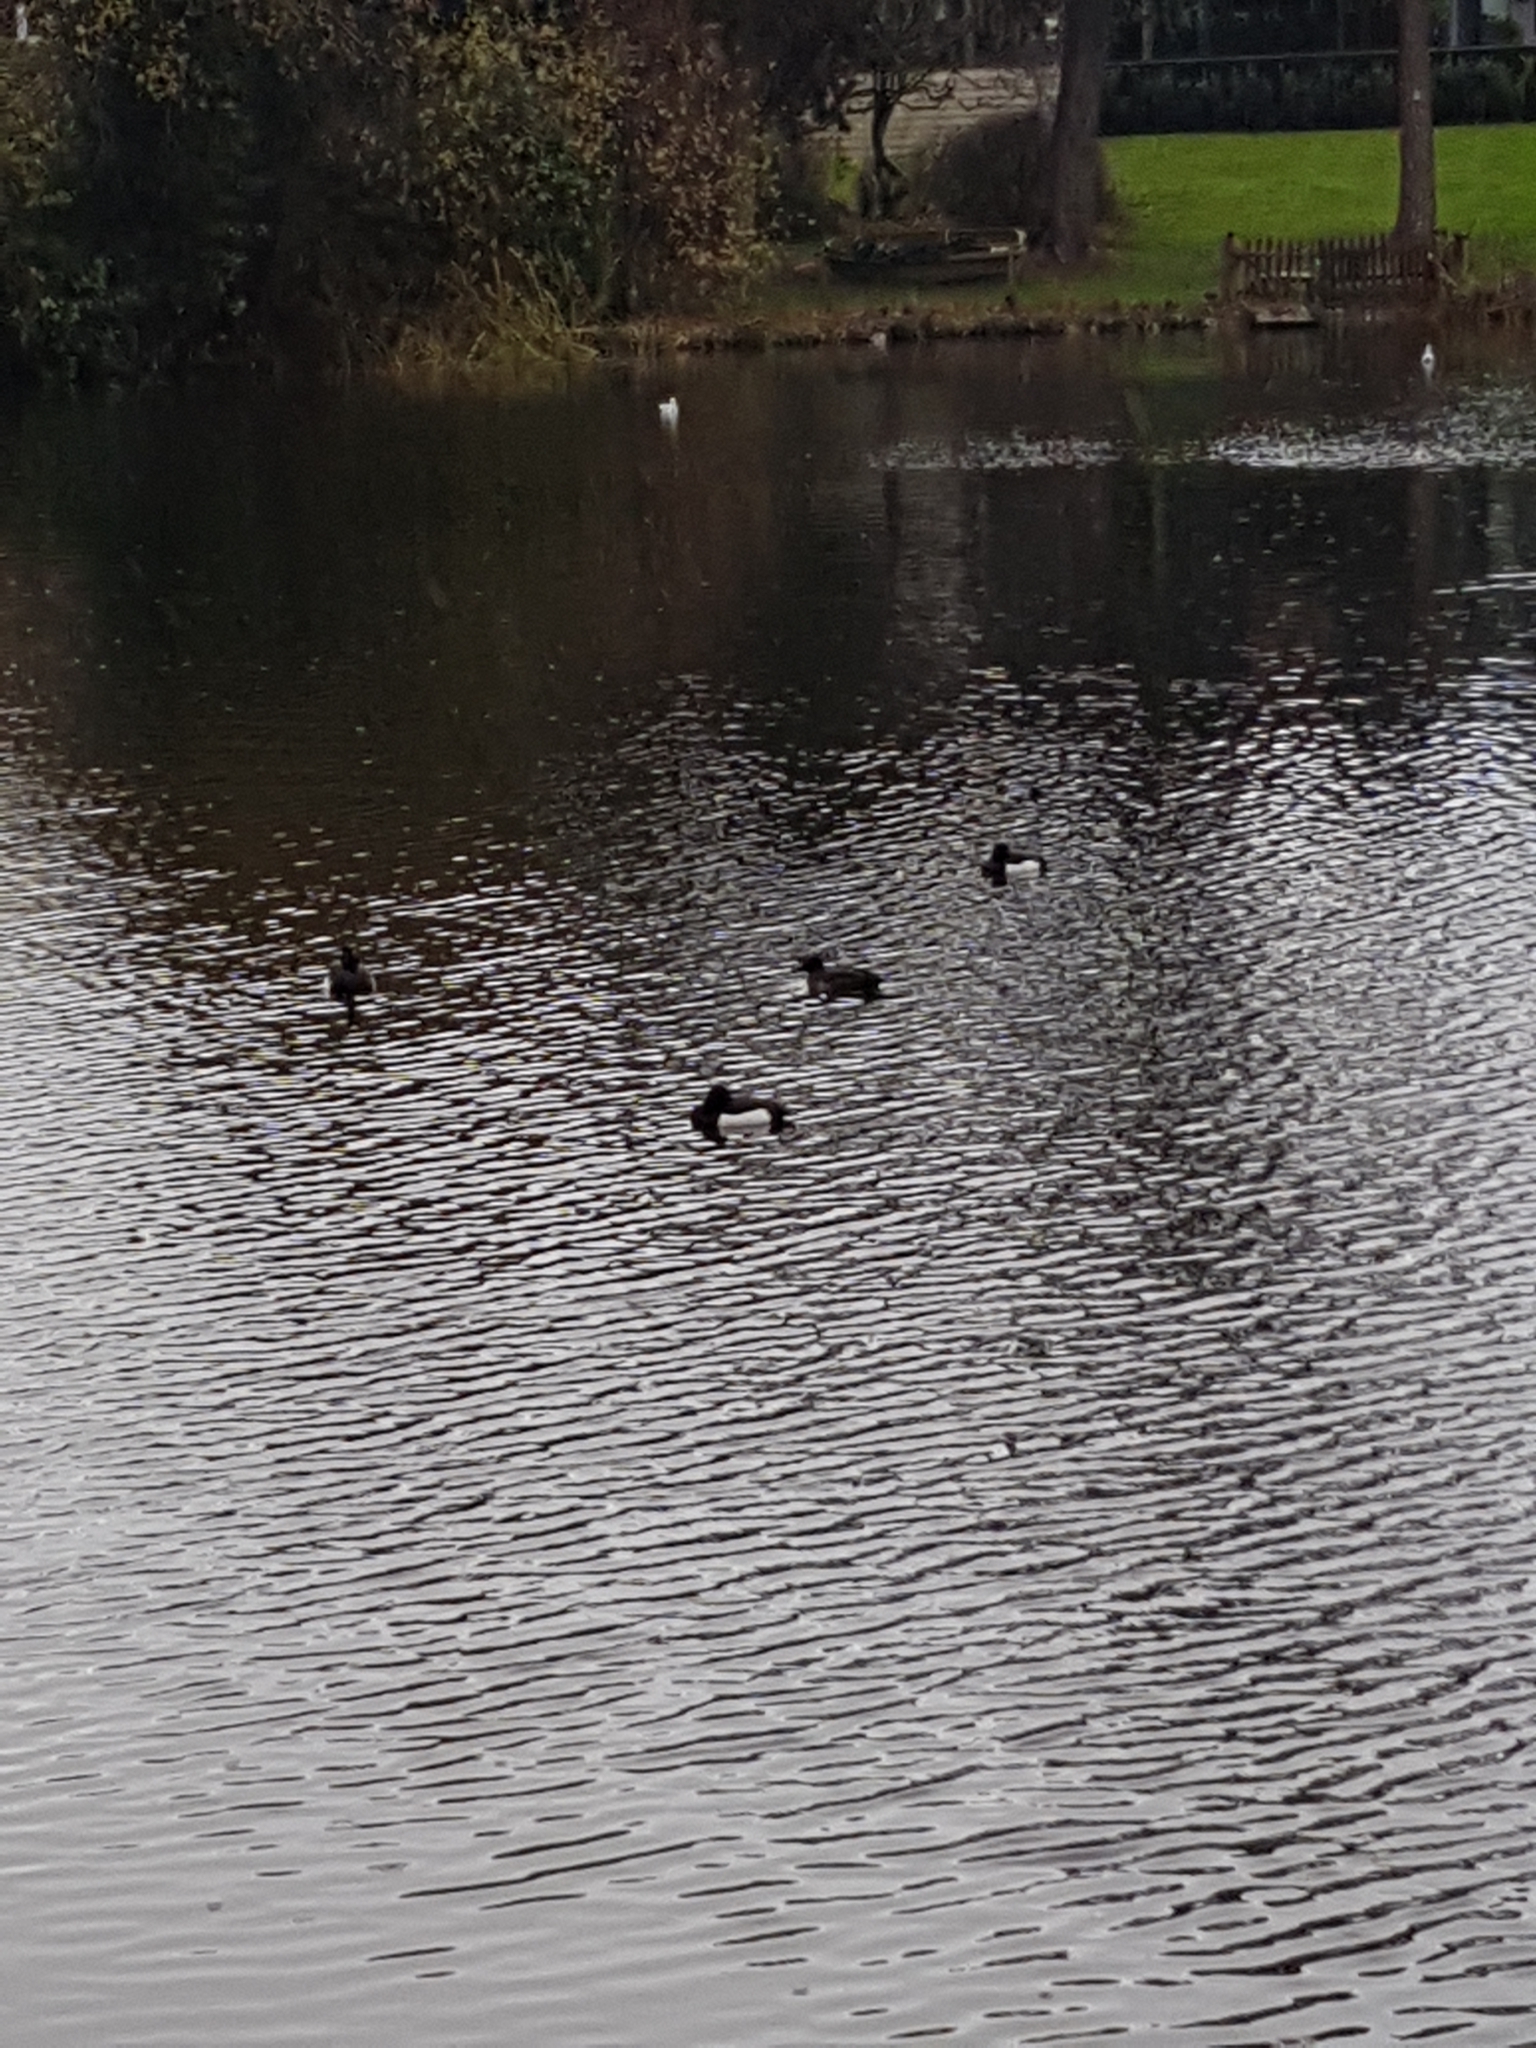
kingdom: Animalia
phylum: Chordata
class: Aves
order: Anseriformes
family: Anatidae
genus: Aythya
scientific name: Aythya fuligula
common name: Tufted duck
